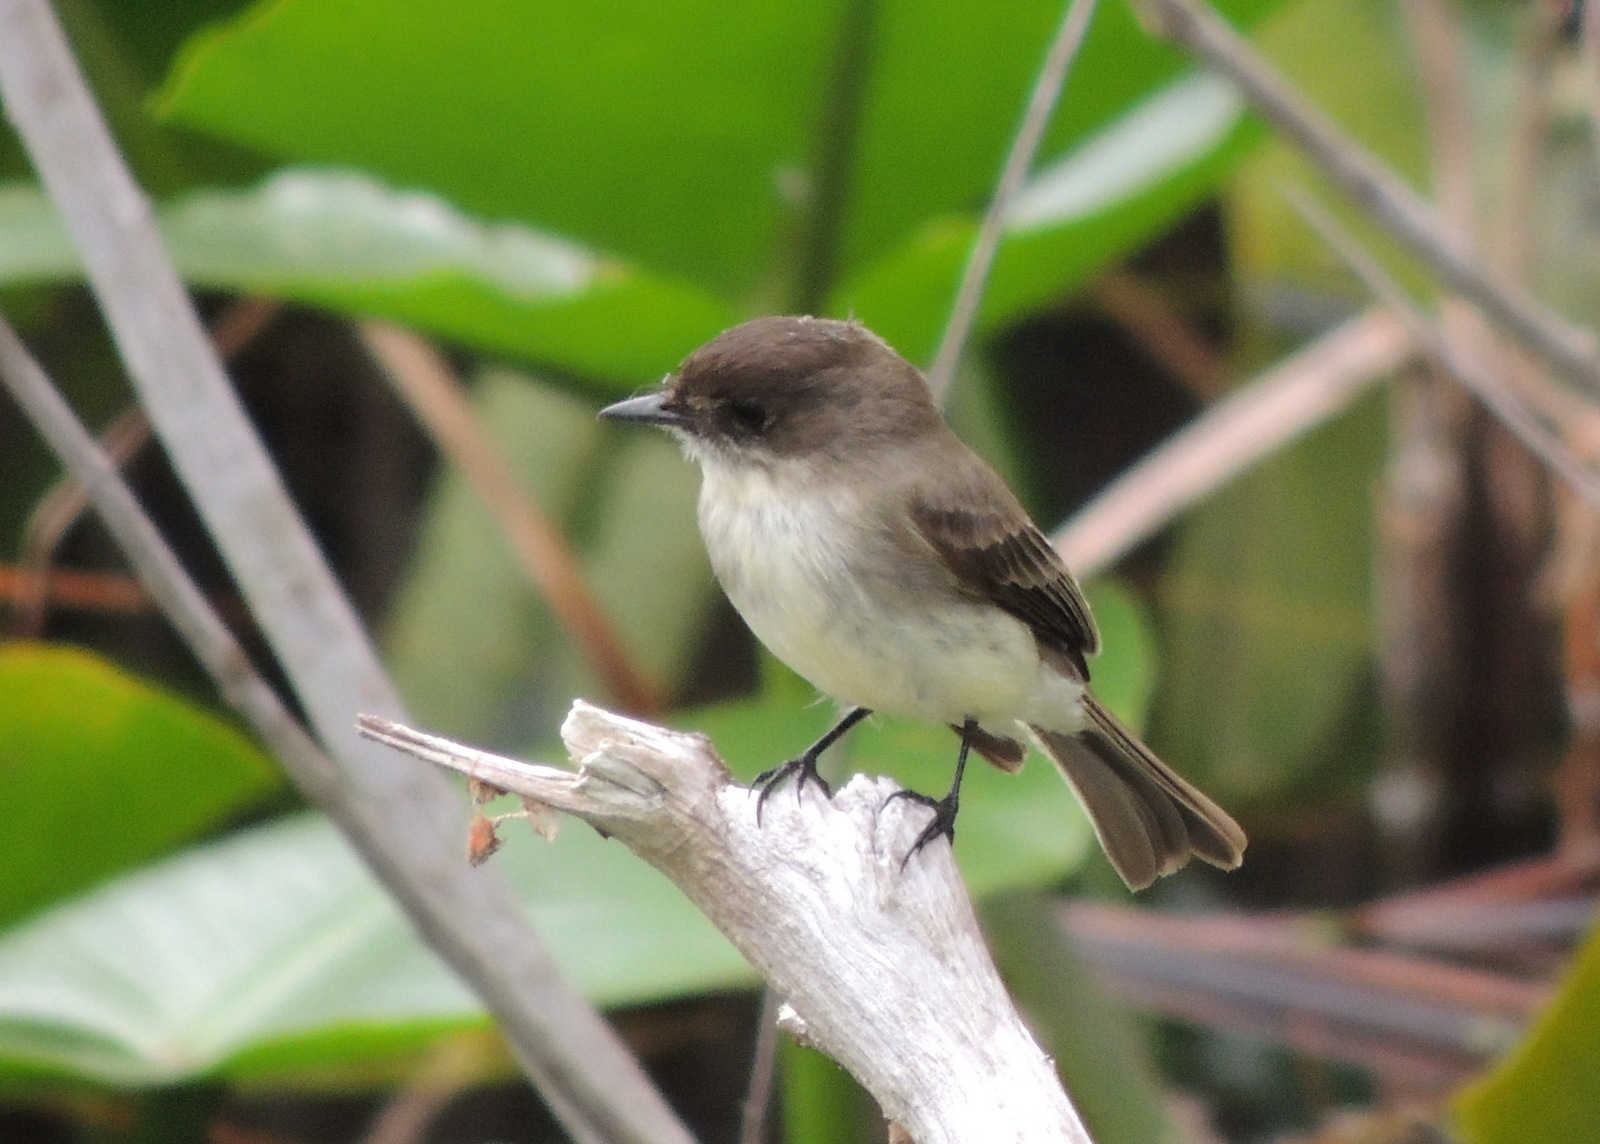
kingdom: Animalia
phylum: Chordata
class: Aves
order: Passeriformes
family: Tyrannidae
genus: Sayornis
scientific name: Sayornis phoebe
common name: Eastern phoebe
